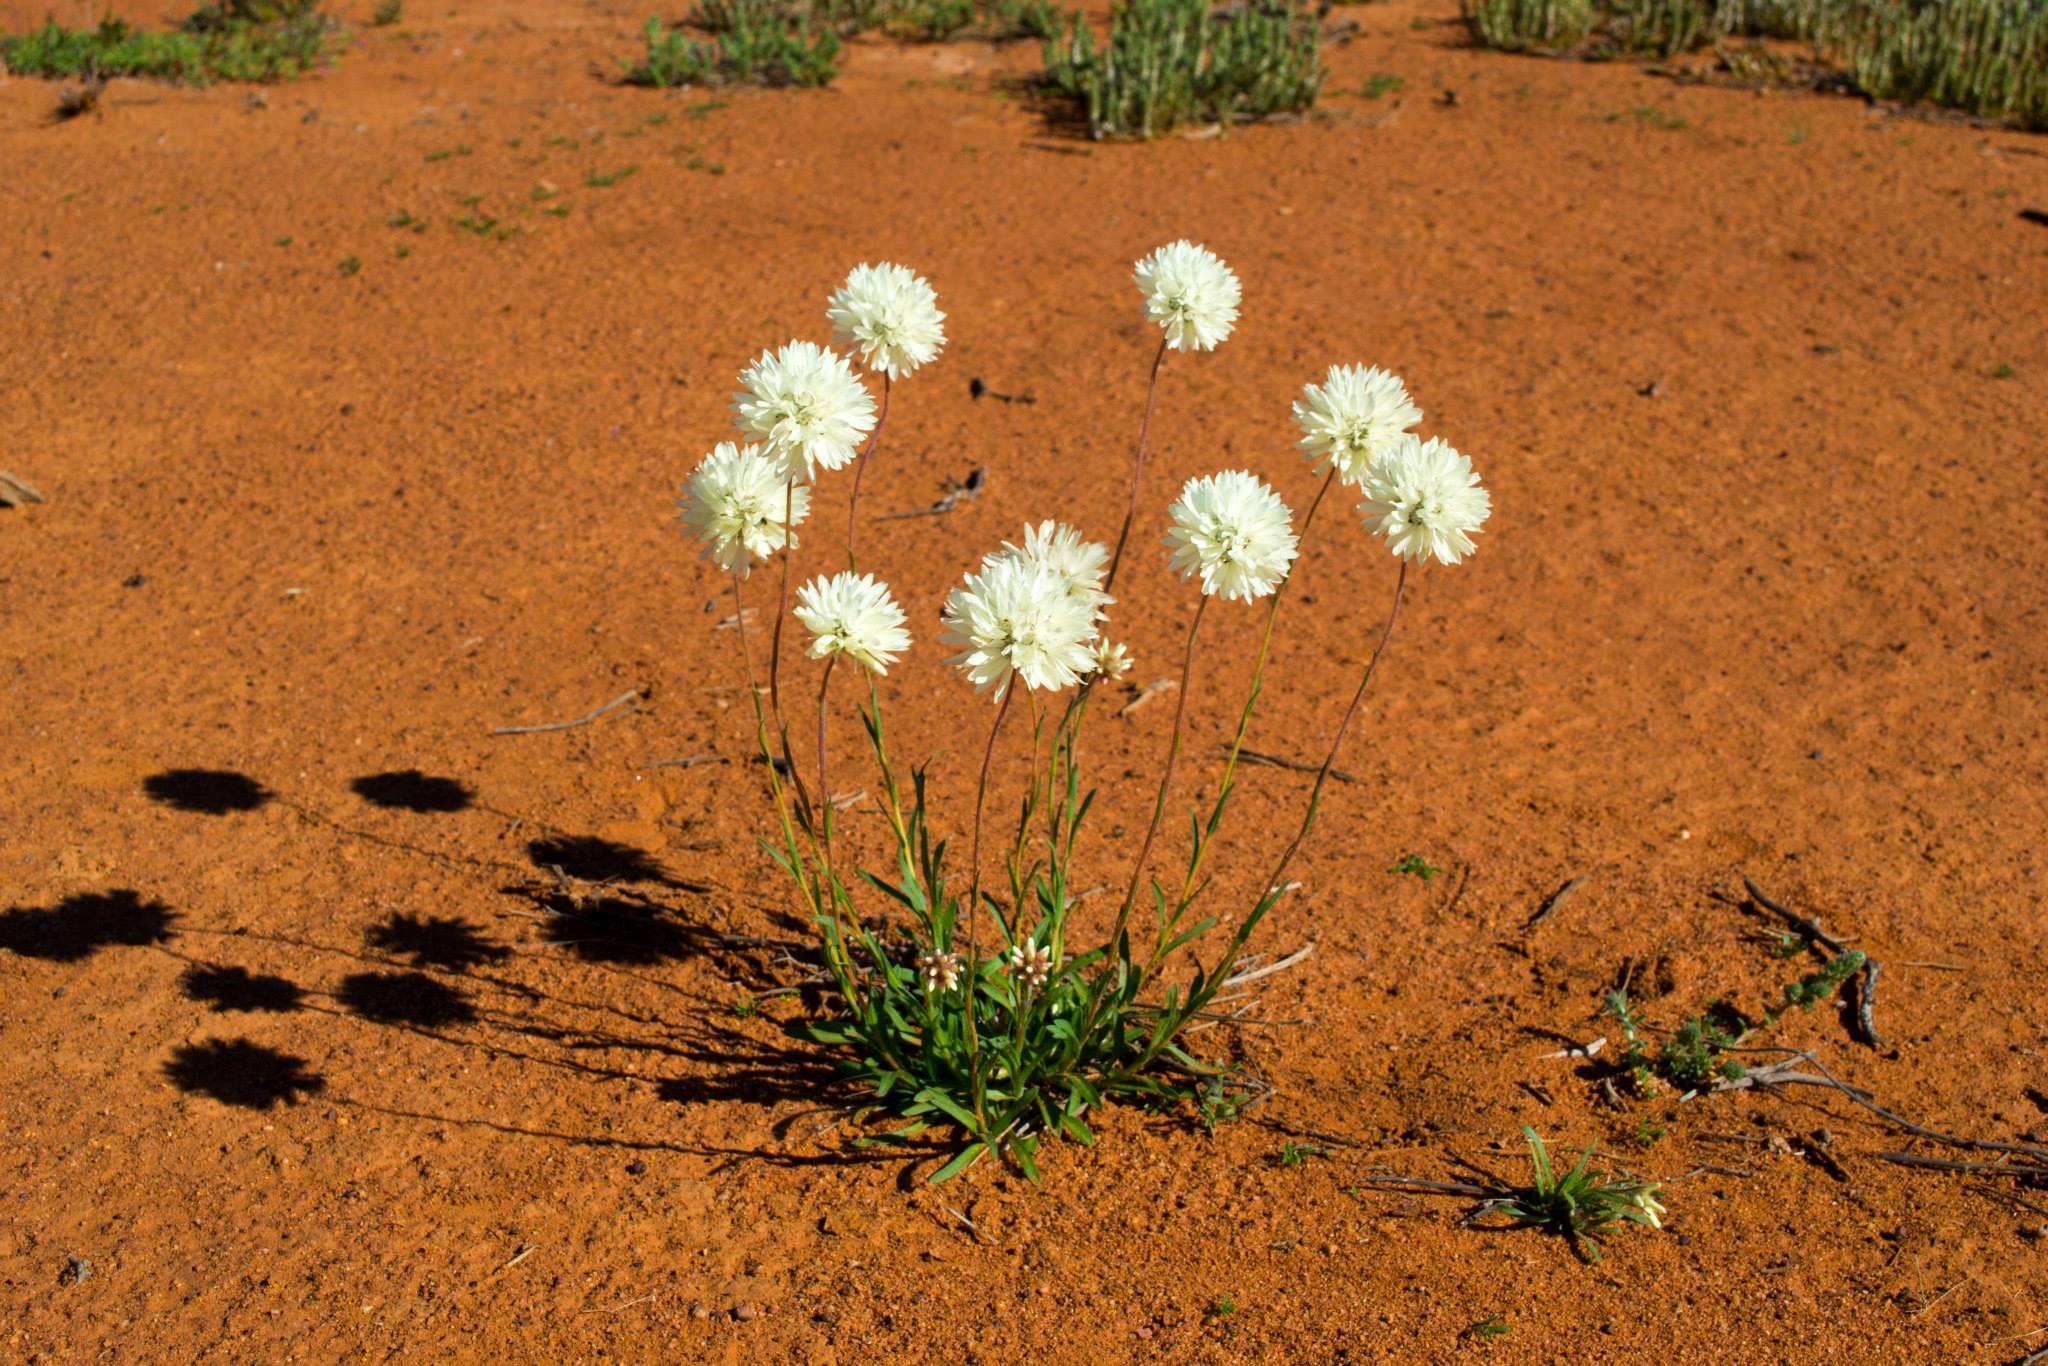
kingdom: Plantae
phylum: Tracheophyta
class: Magnoliopsida
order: Asterales
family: Asteraceae
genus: Cephalipterum
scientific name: Cephalipterum drummondii
